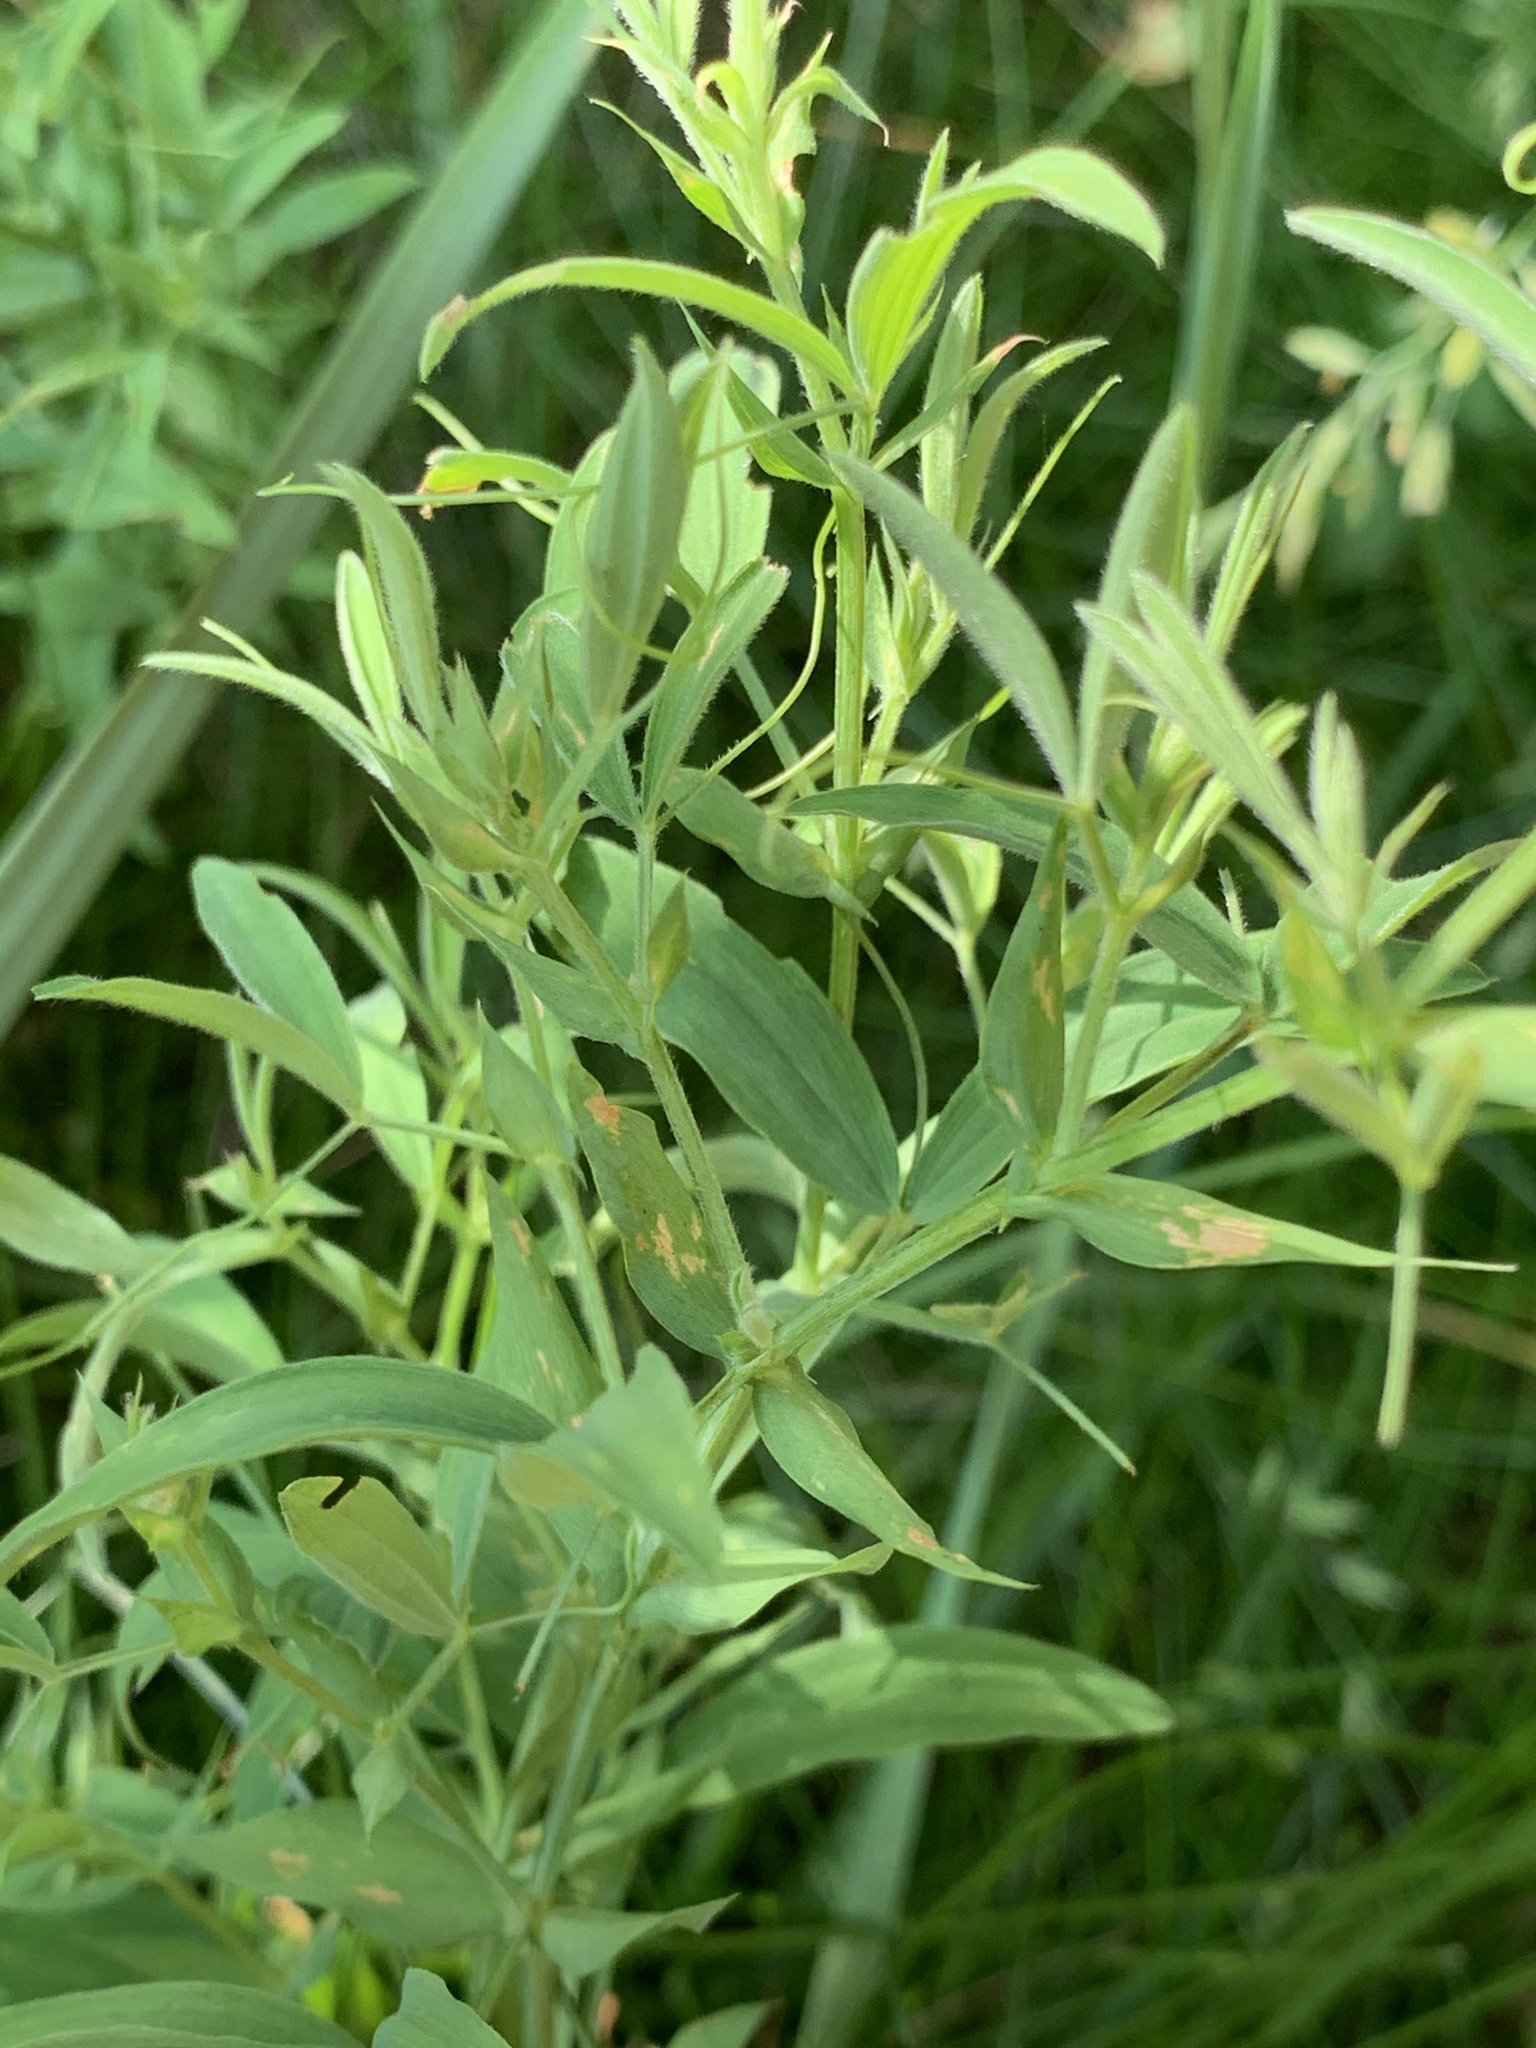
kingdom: Plantae
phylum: Tracheophyta
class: Magnoliopsida
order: Fabales
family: Fabaceae
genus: Lathyrus
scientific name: Lathyrus sylvestris
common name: Flat pea
